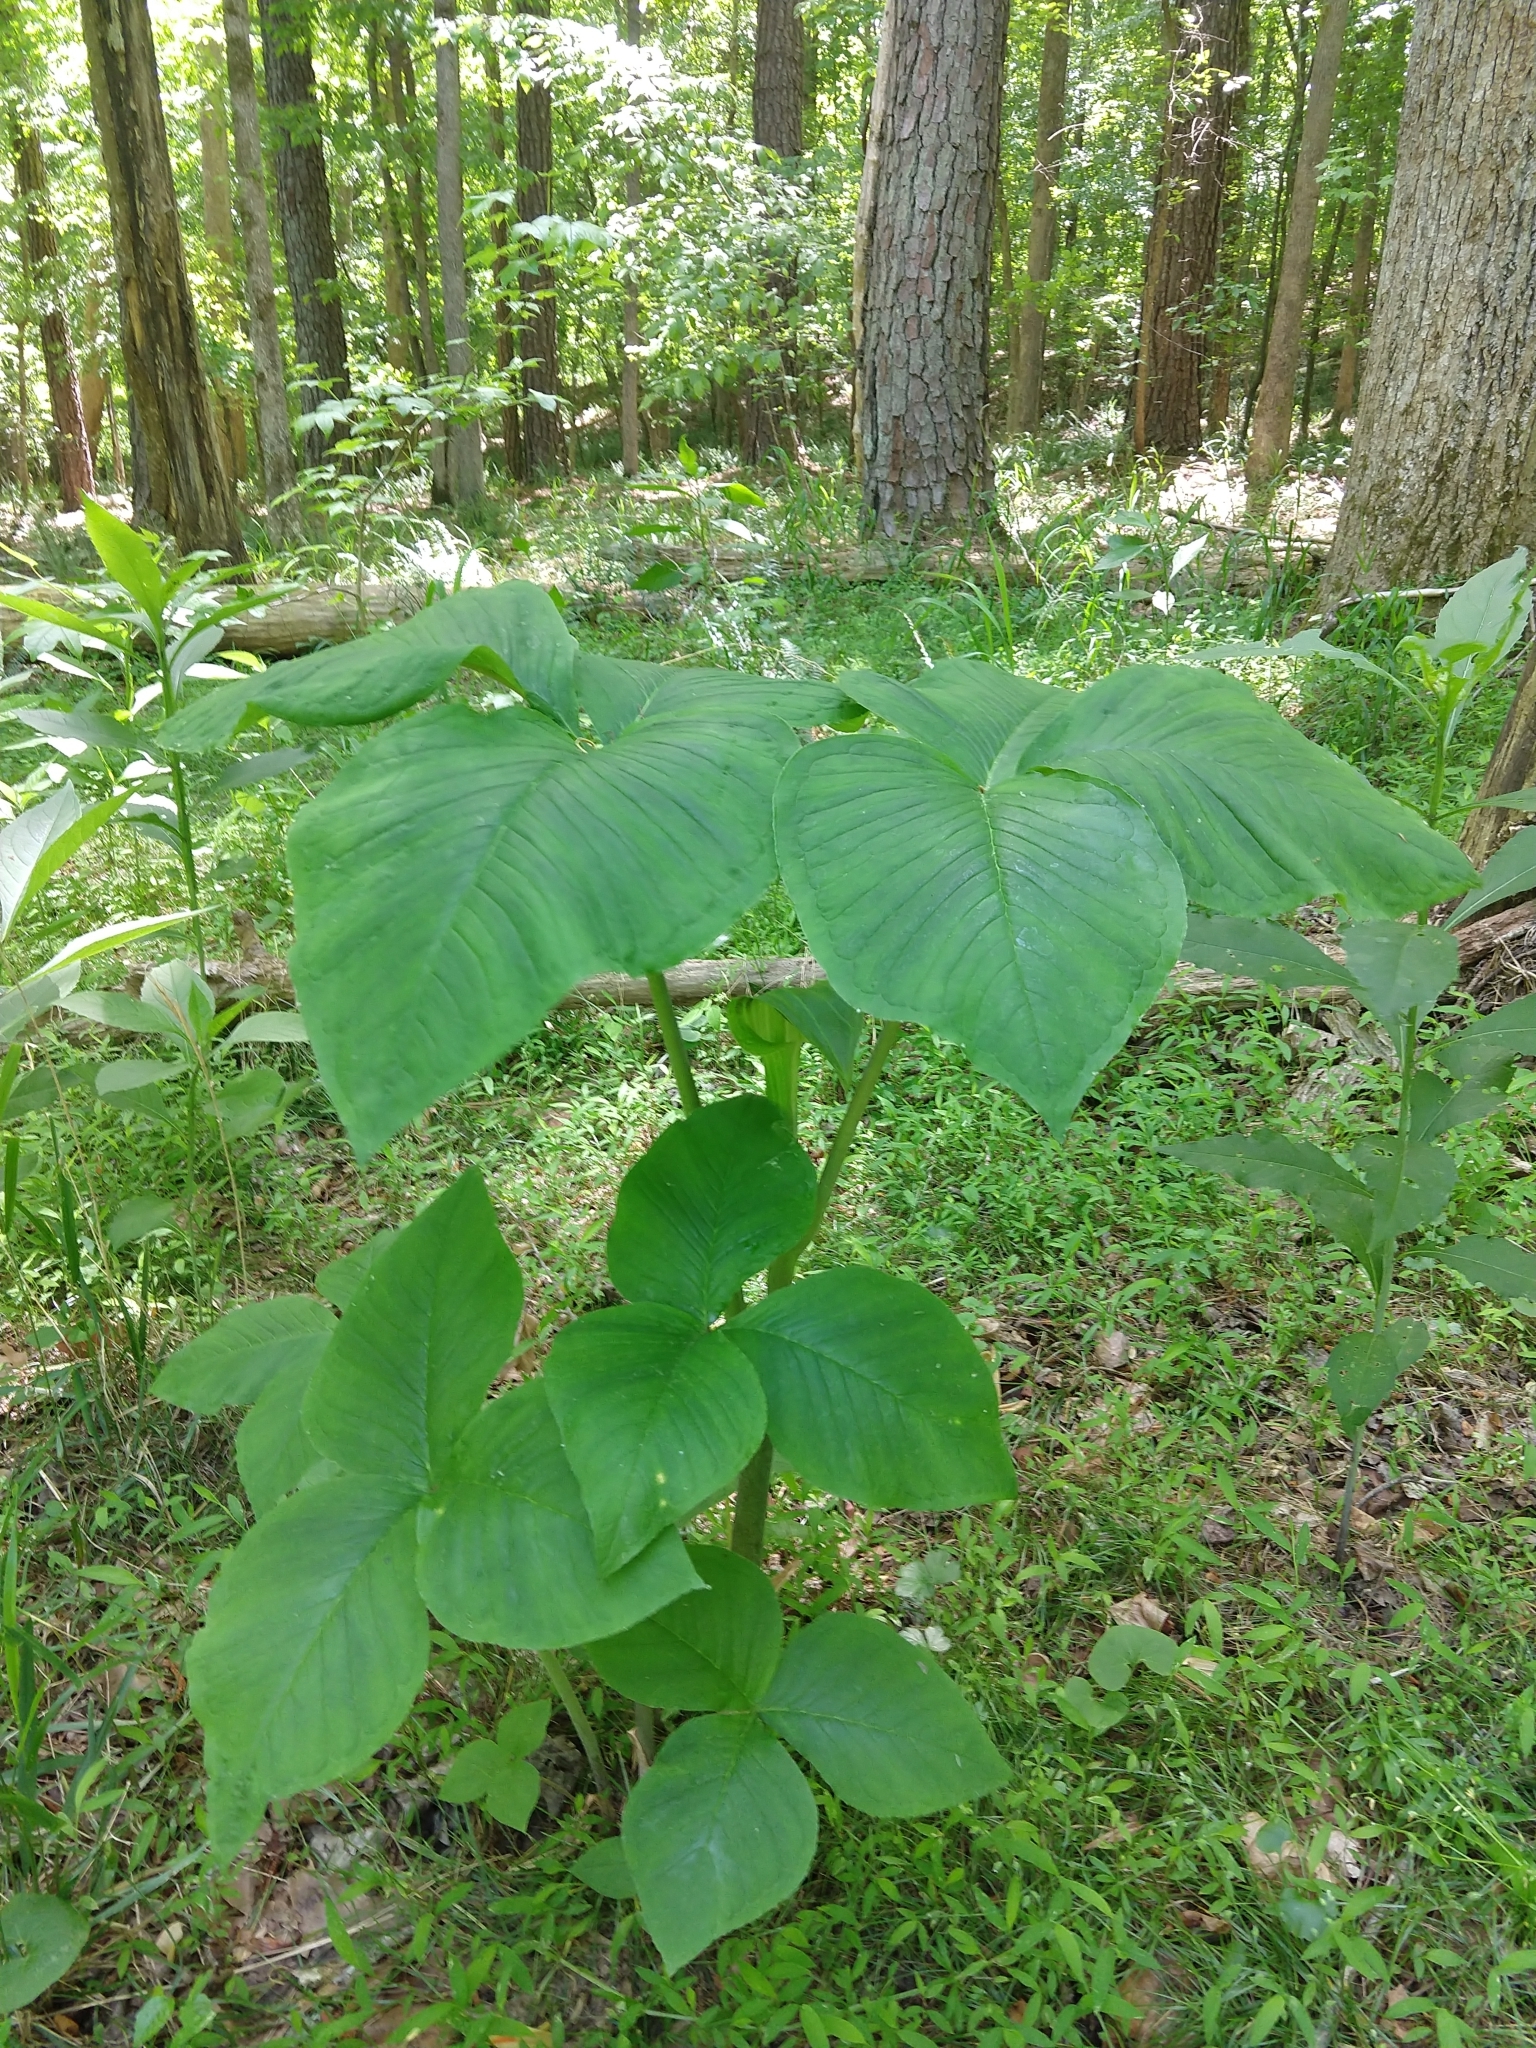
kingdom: Plantae
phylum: Tracheophyta
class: Liliopsida
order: Alismatales
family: Araceae
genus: Arisaema
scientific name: Arisaema triphyllum
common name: Jack-in-the-pulpit
